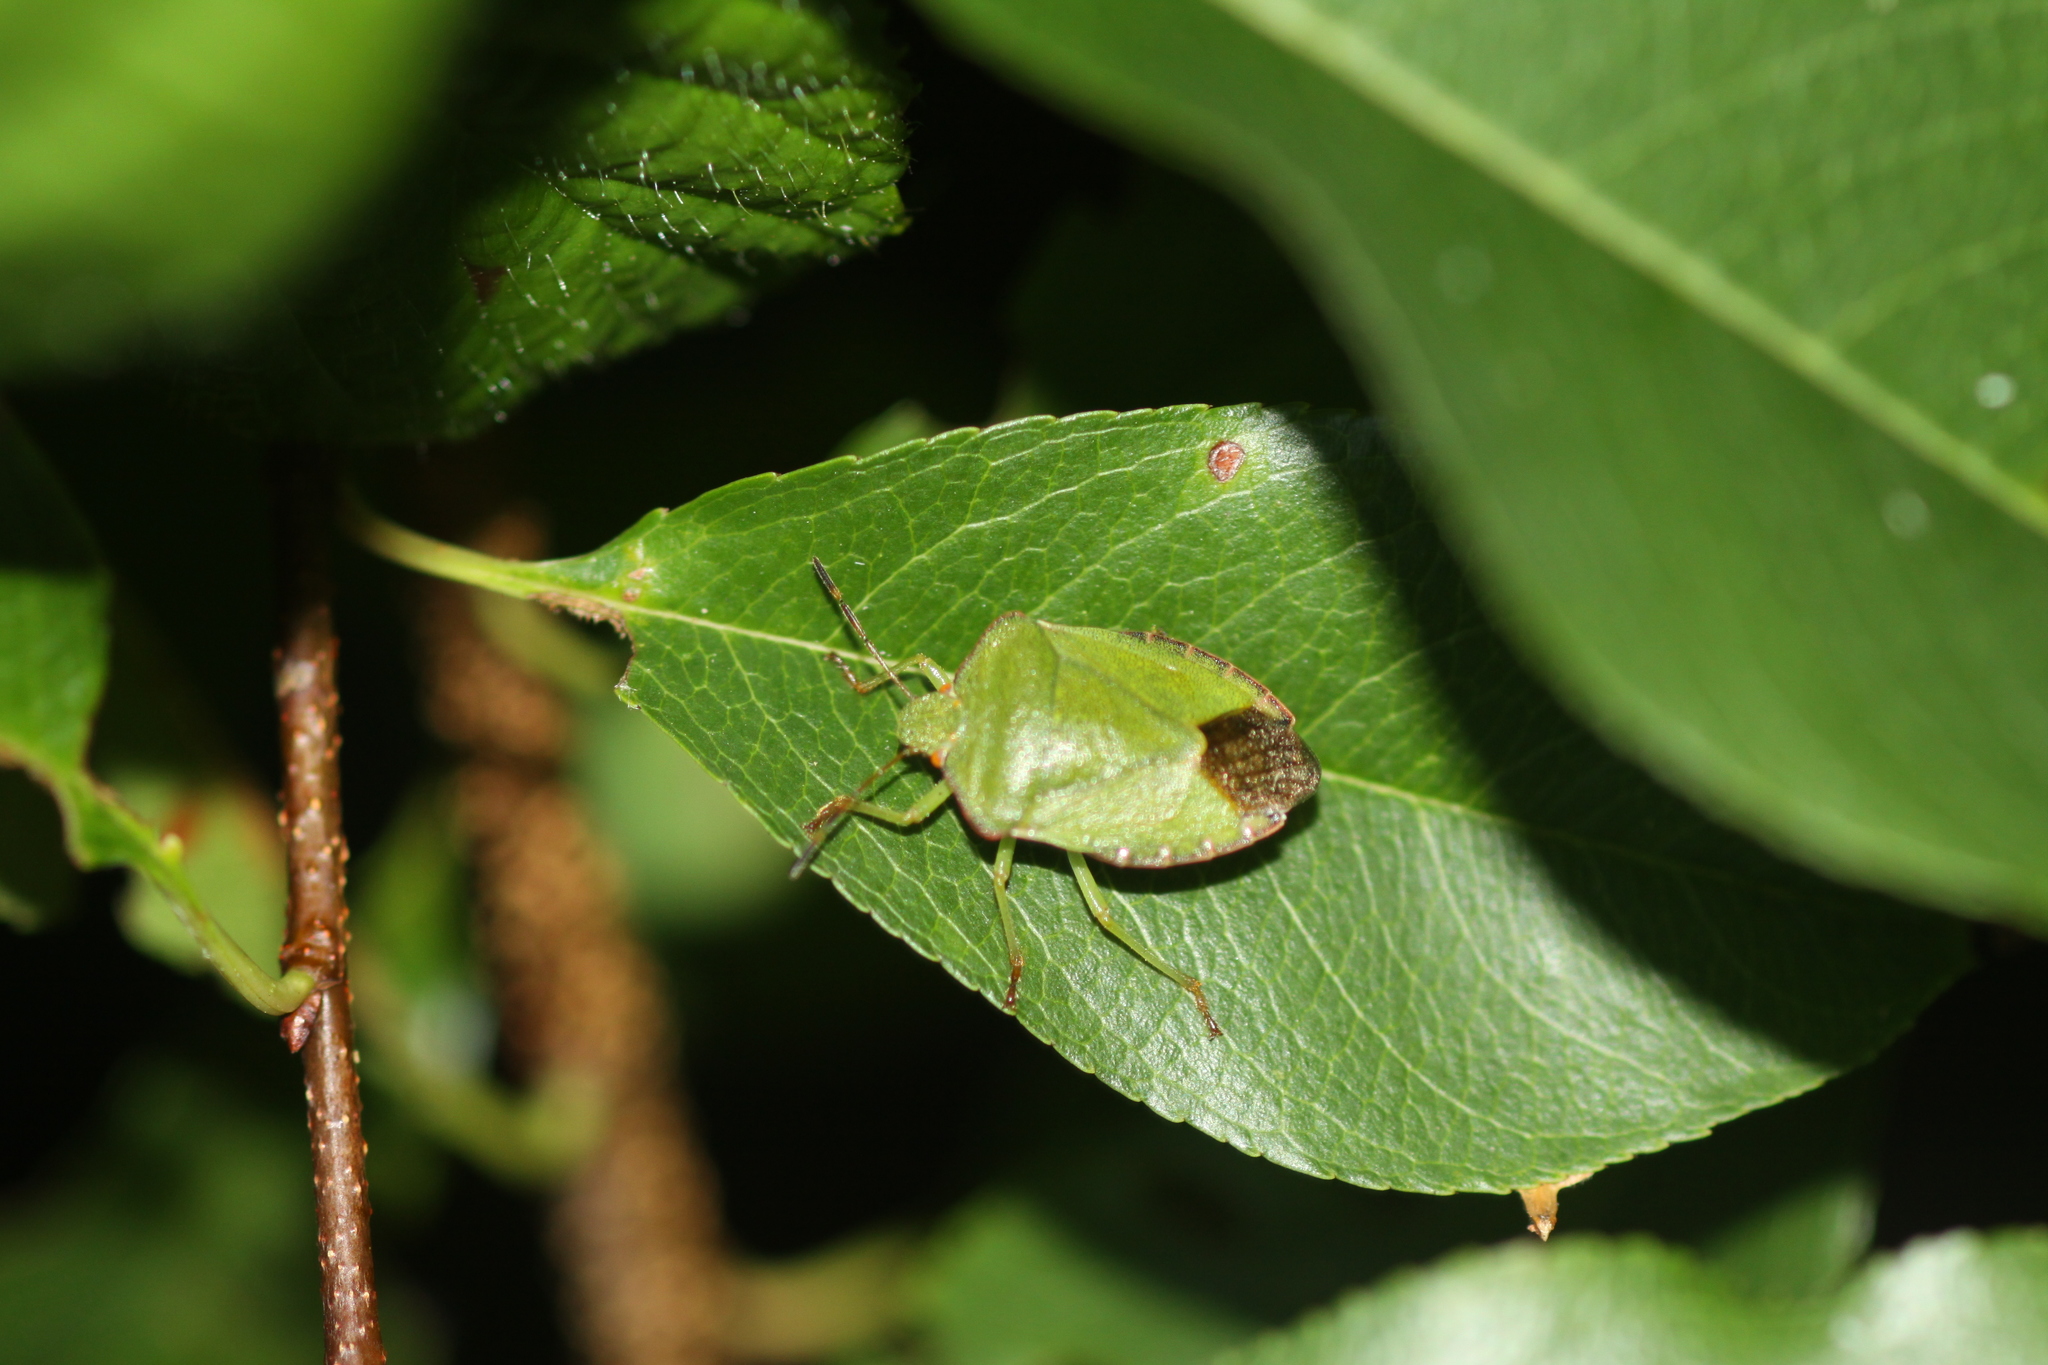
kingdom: Animalia
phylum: Arthropoda
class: Insecta
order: Hemiptera
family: Pentatomidae
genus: Palomena
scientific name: Palomena prasina
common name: Green shieldbug
